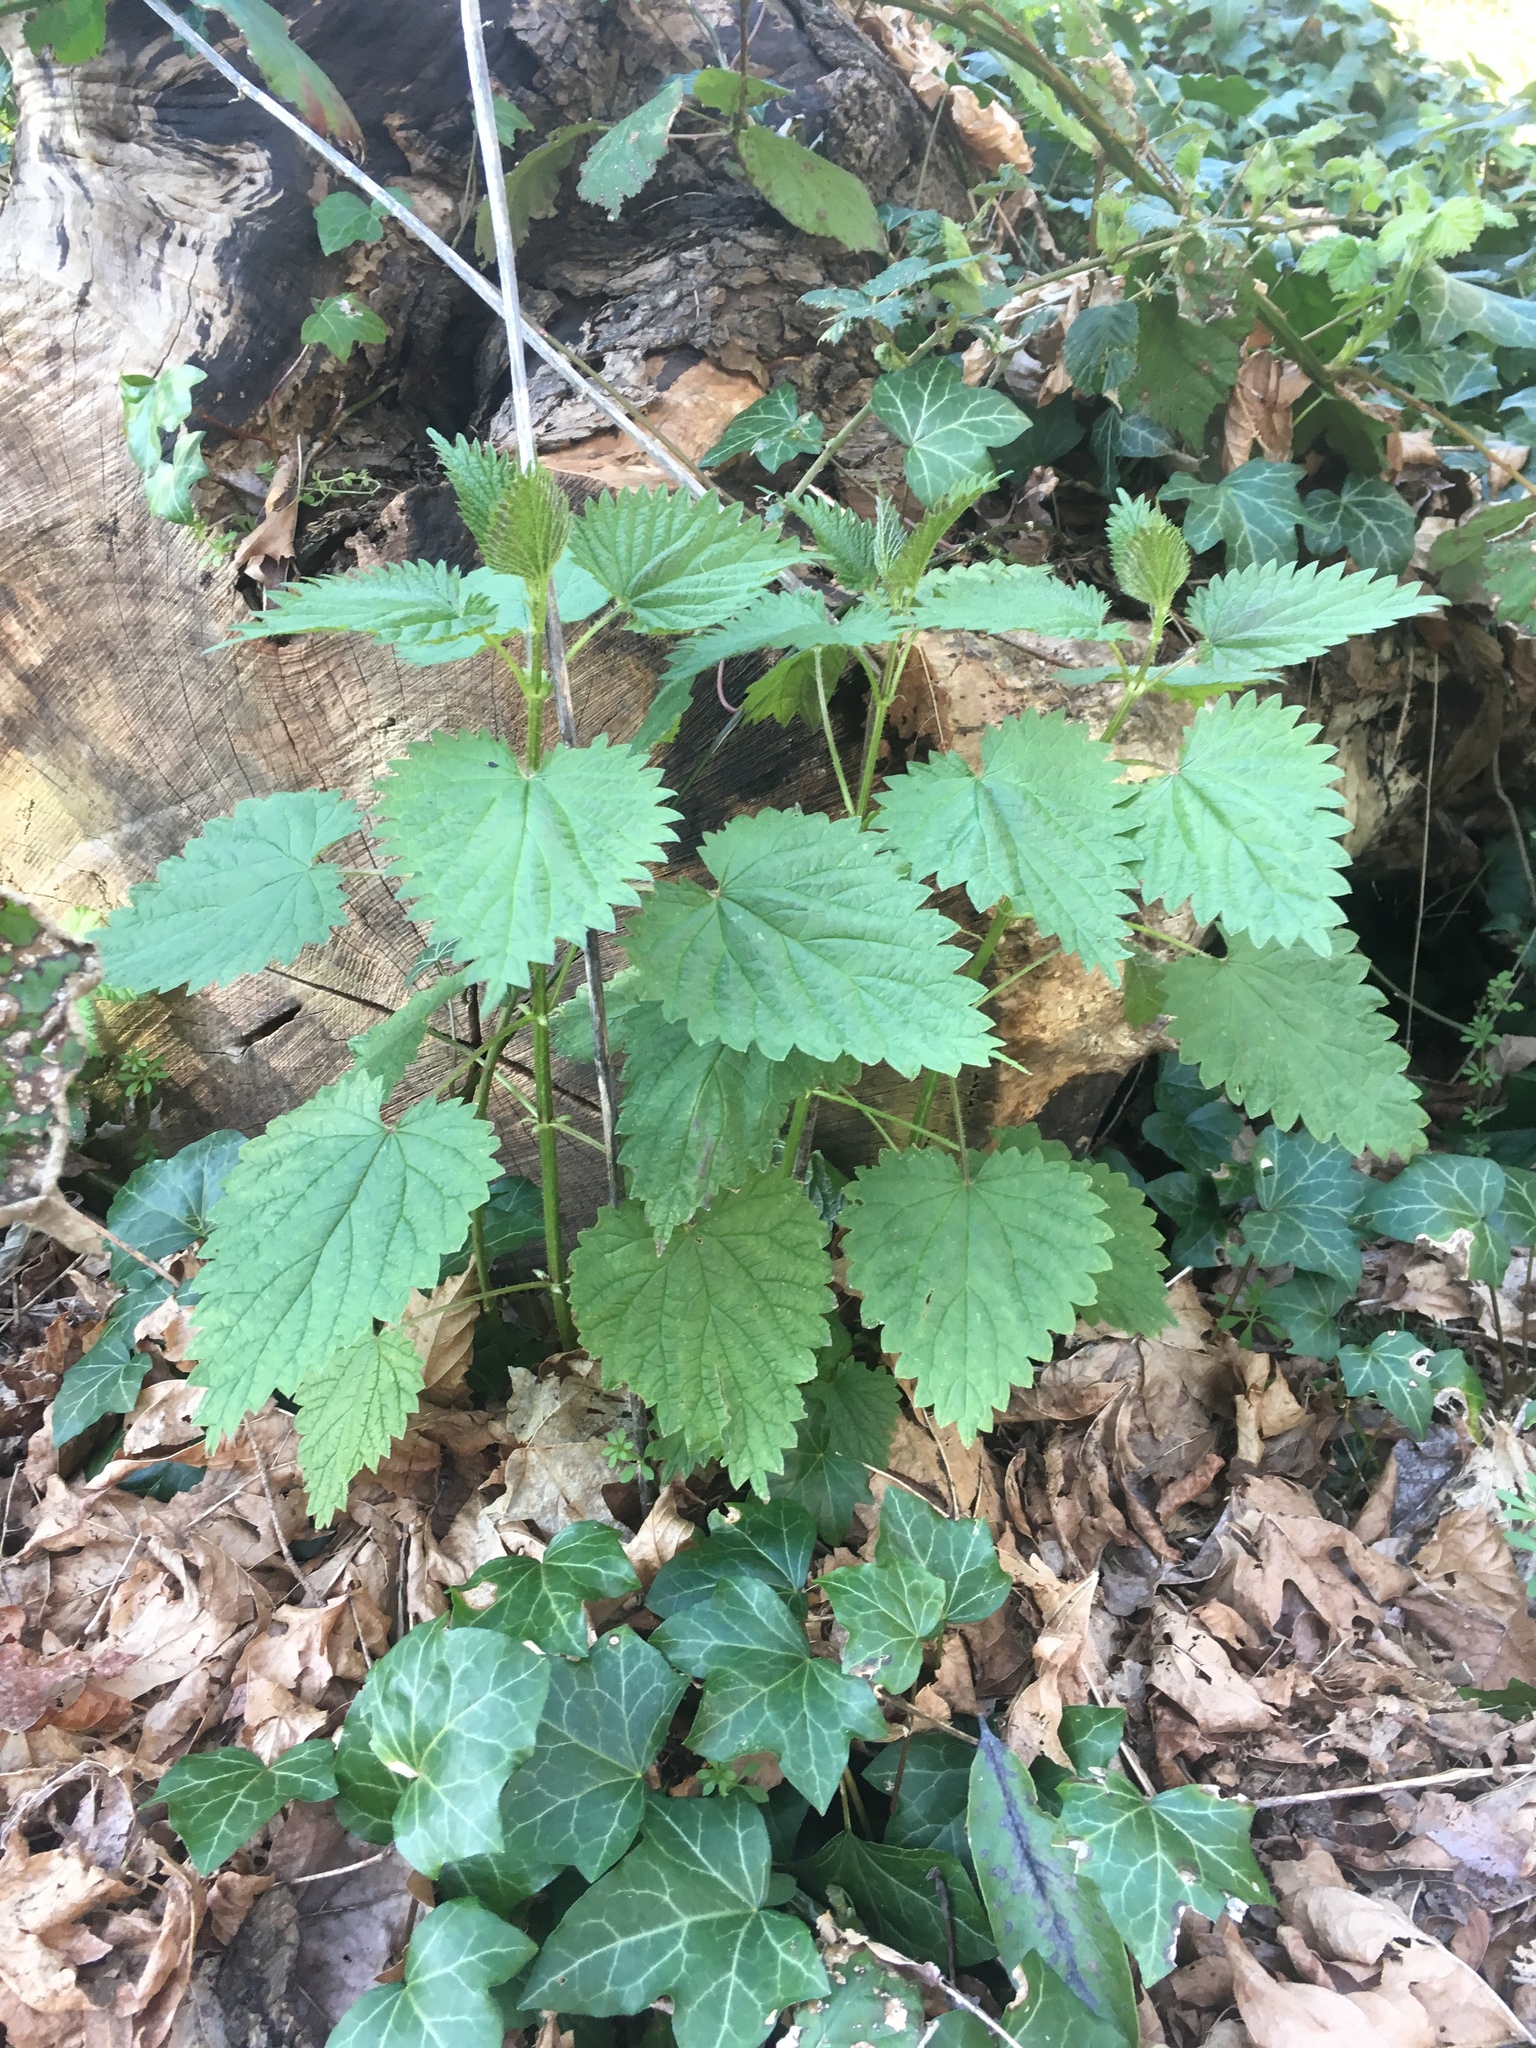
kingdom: Plantae
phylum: Tracheophyta
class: Magnoliopsida
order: Rosales
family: Urticaceae
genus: Urtica
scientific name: Urtica dioica
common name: Common nettle
